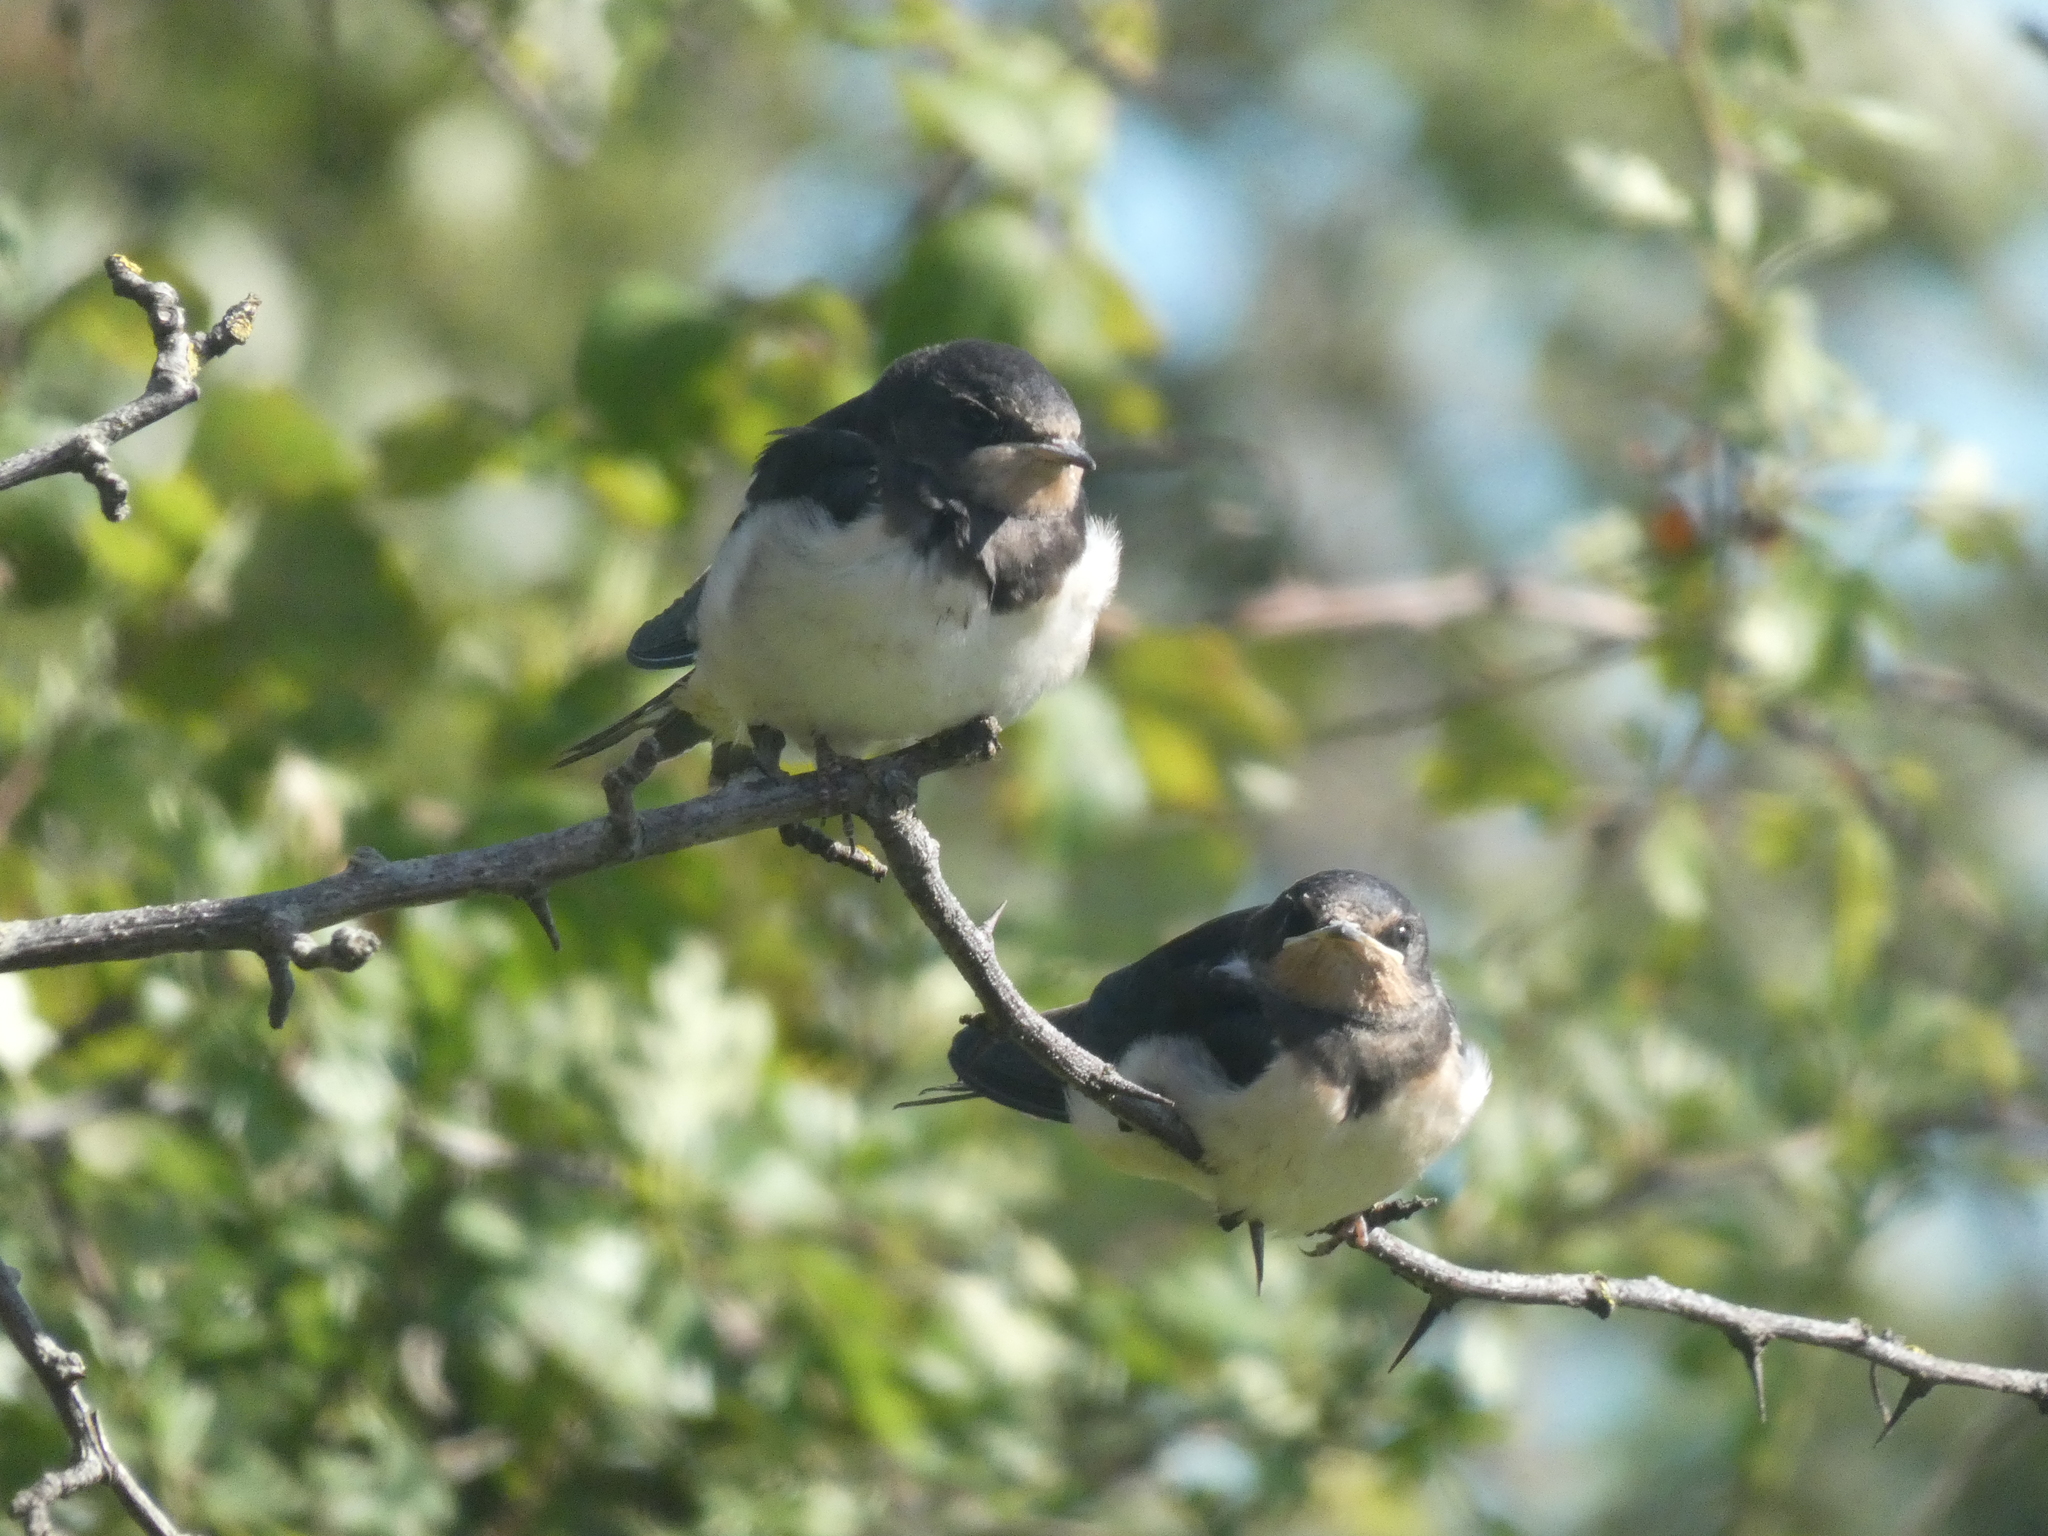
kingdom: Animalia
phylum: Chordata
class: Aves
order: Passeriformes
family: Hirundinidae
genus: Hirundo
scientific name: Hirundo rustica
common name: Barn swallow
